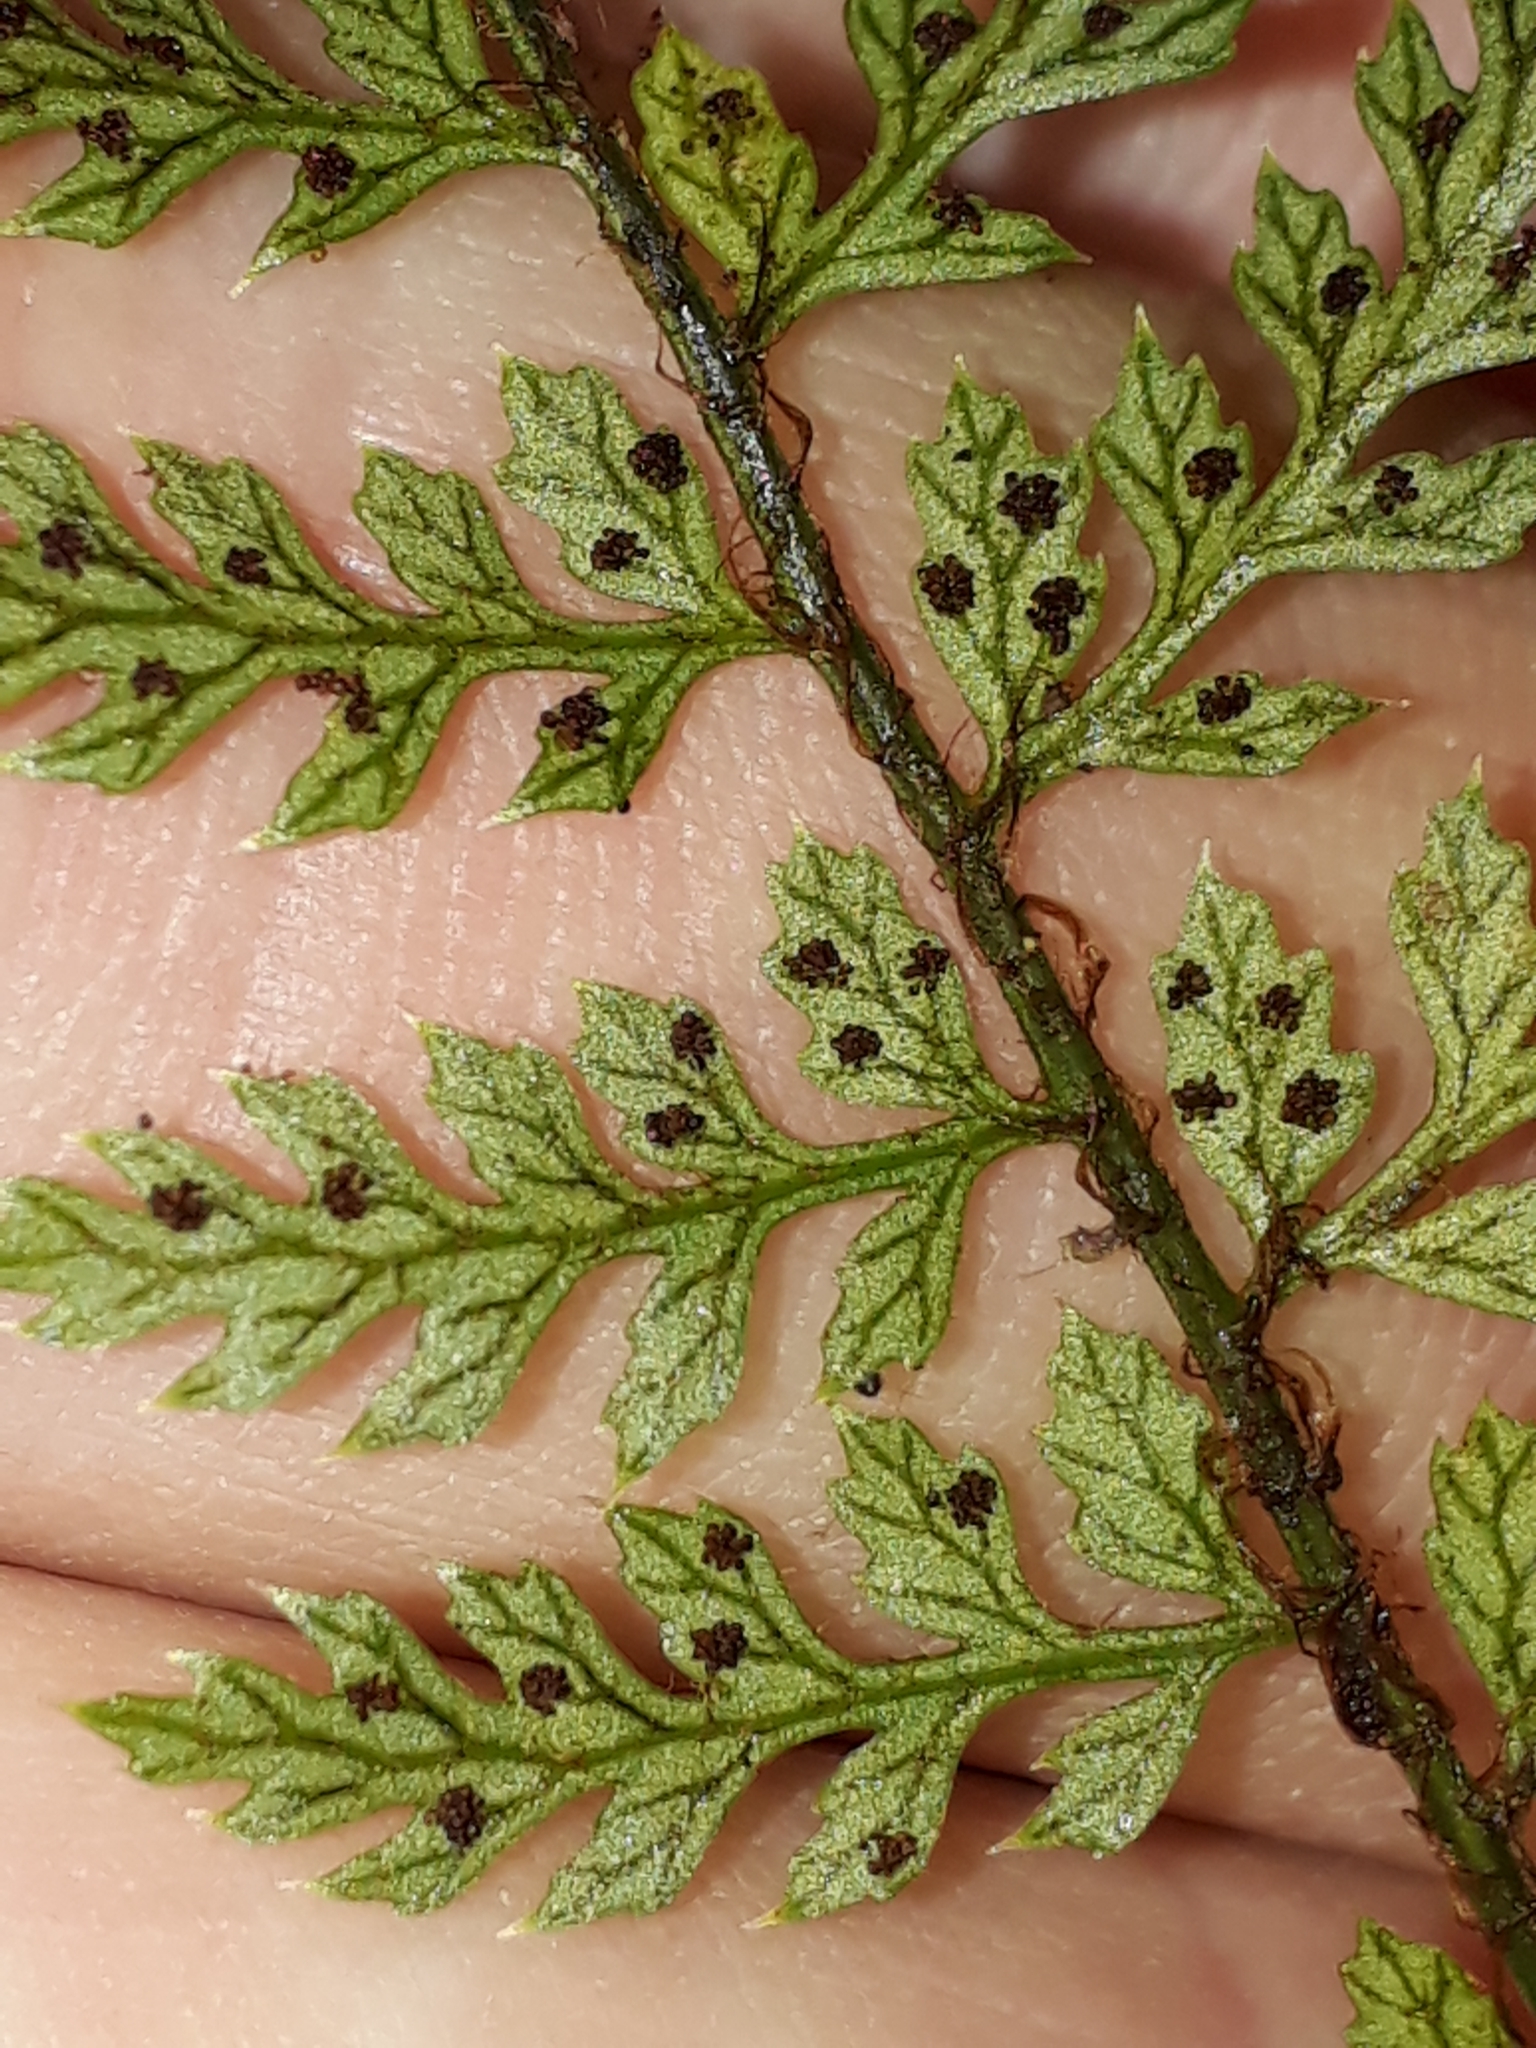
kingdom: Plantae
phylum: Tracheophyta
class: Polypodiopsida
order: Polypodiales
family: Dryopteridaceae
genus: Polystichum
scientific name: Polystichum silvaticum
